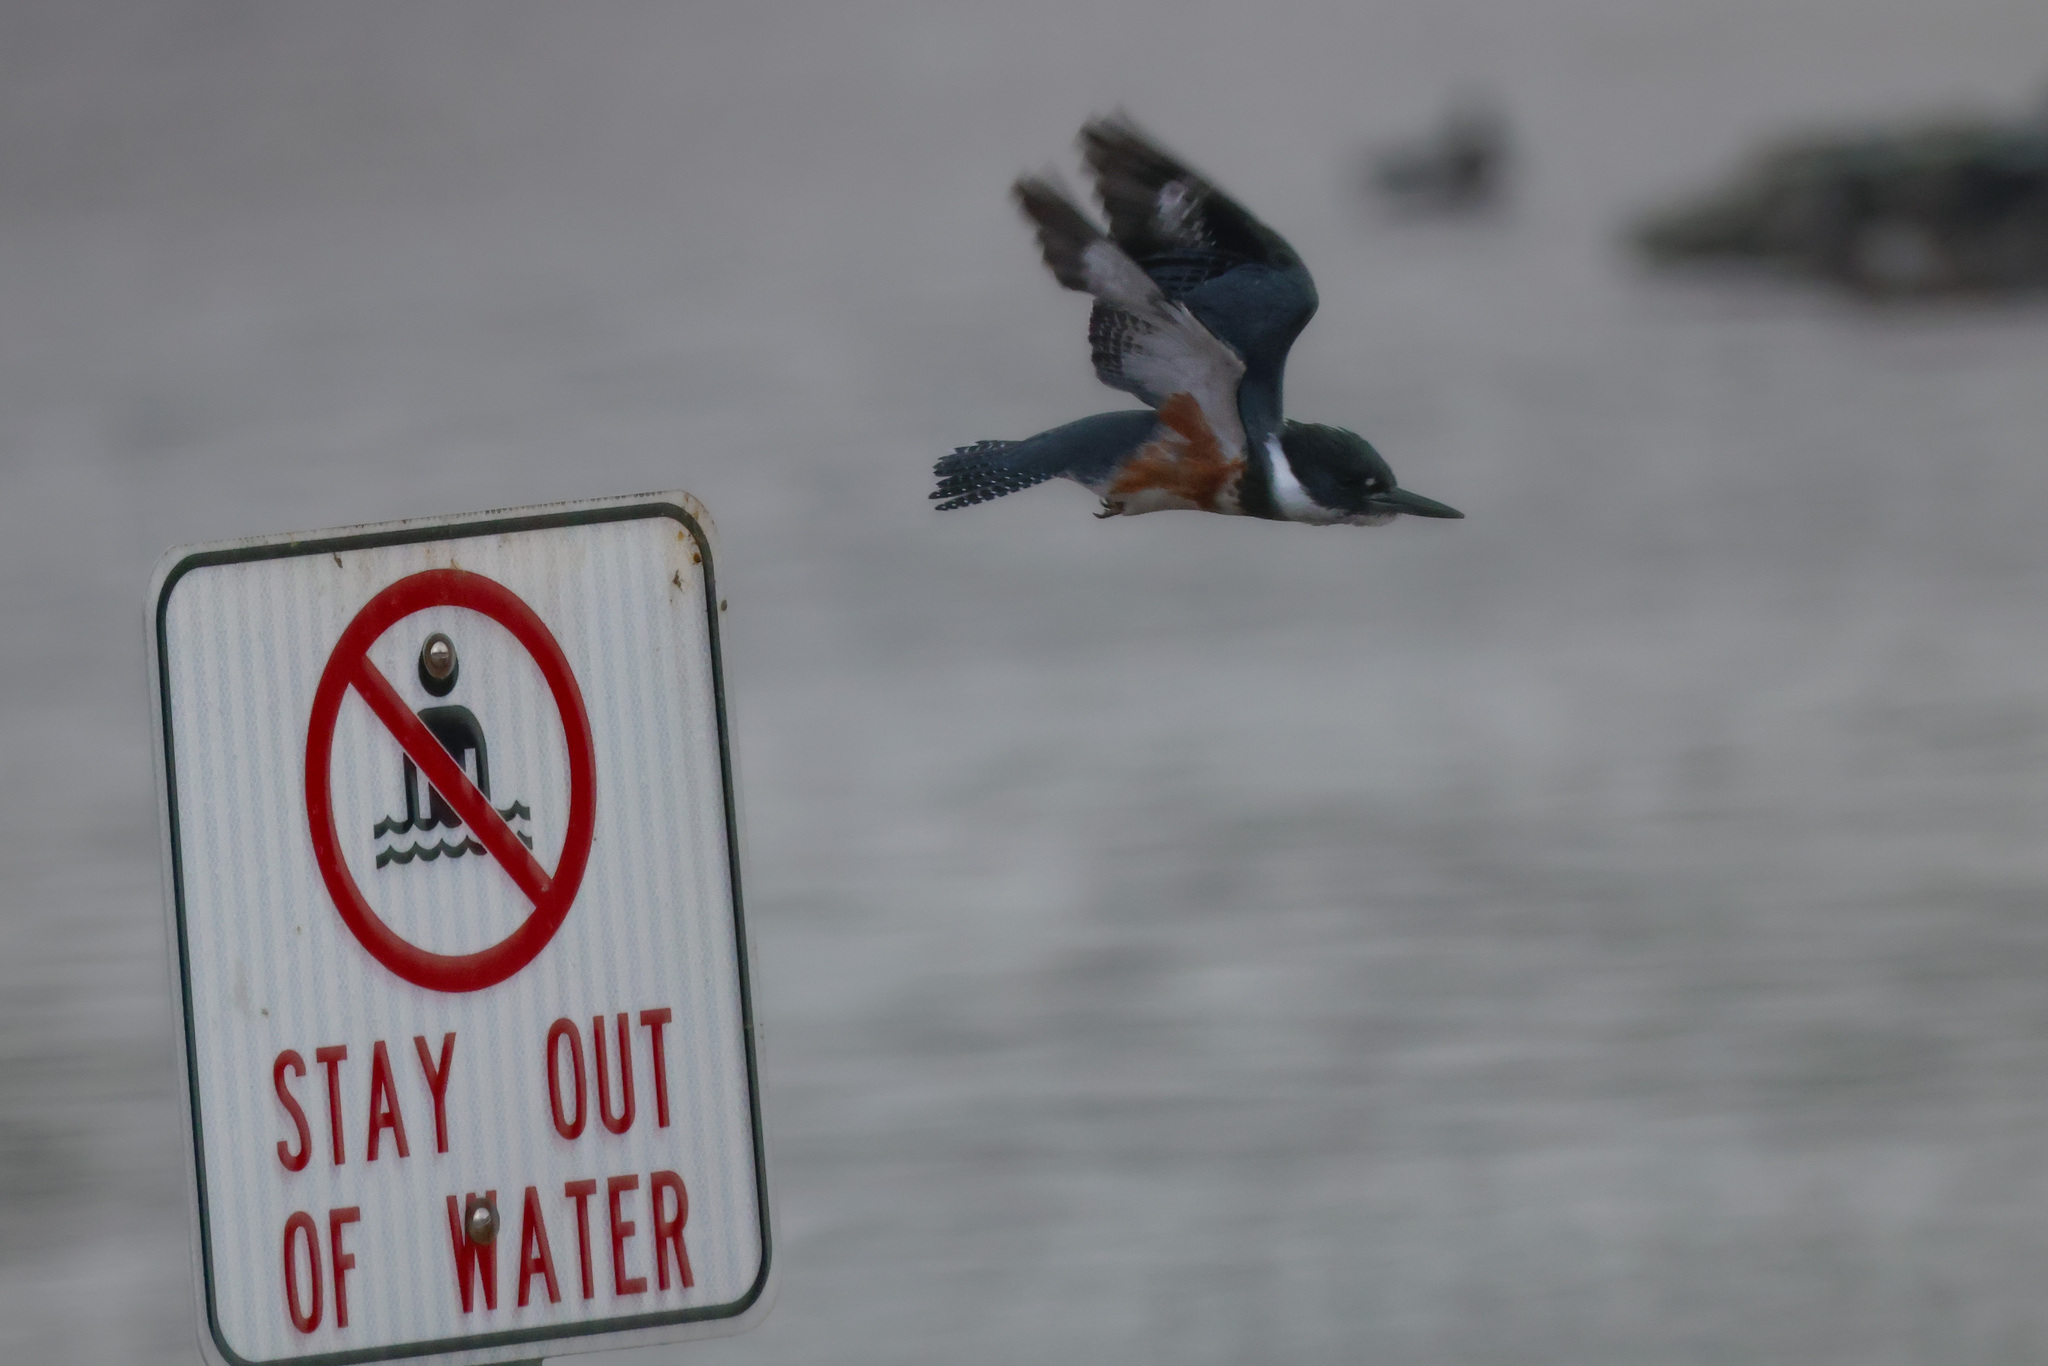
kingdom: Animalia
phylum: Chordata
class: Aves
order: Coraciiformes
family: Alcedinidae
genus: Megaceryle
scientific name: Megaceryle alcyon
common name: Belted kingfisher
